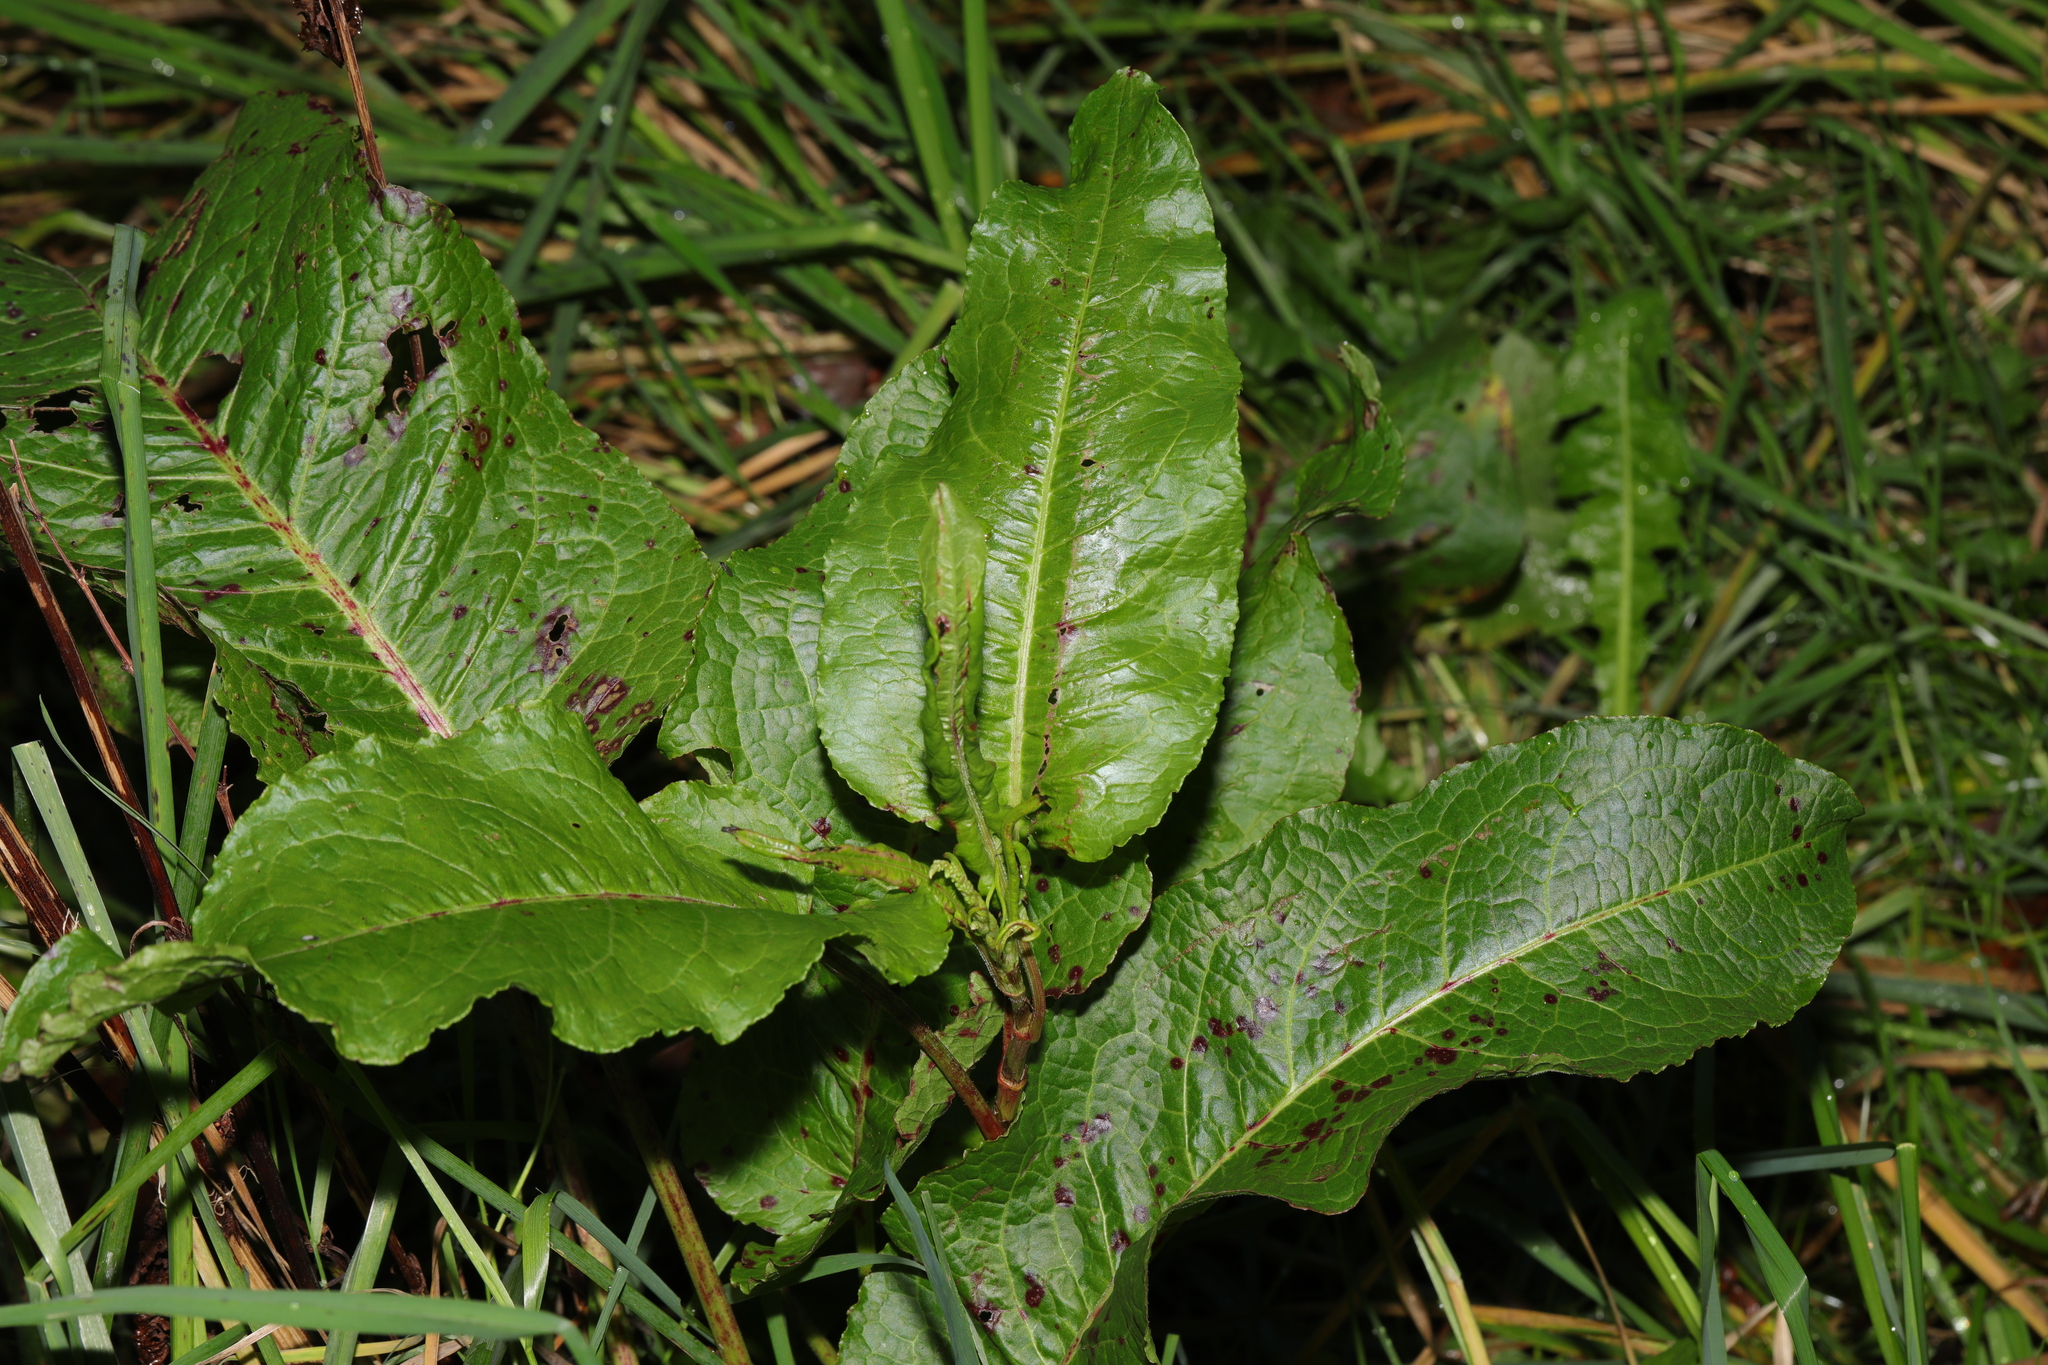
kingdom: Plantae
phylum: Tracheophyta
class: Magnoliopsida
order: Caryophyllales
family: Polygonaceae
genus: Rumex
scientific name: Rumex obtusifolius
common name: Bitter dock
